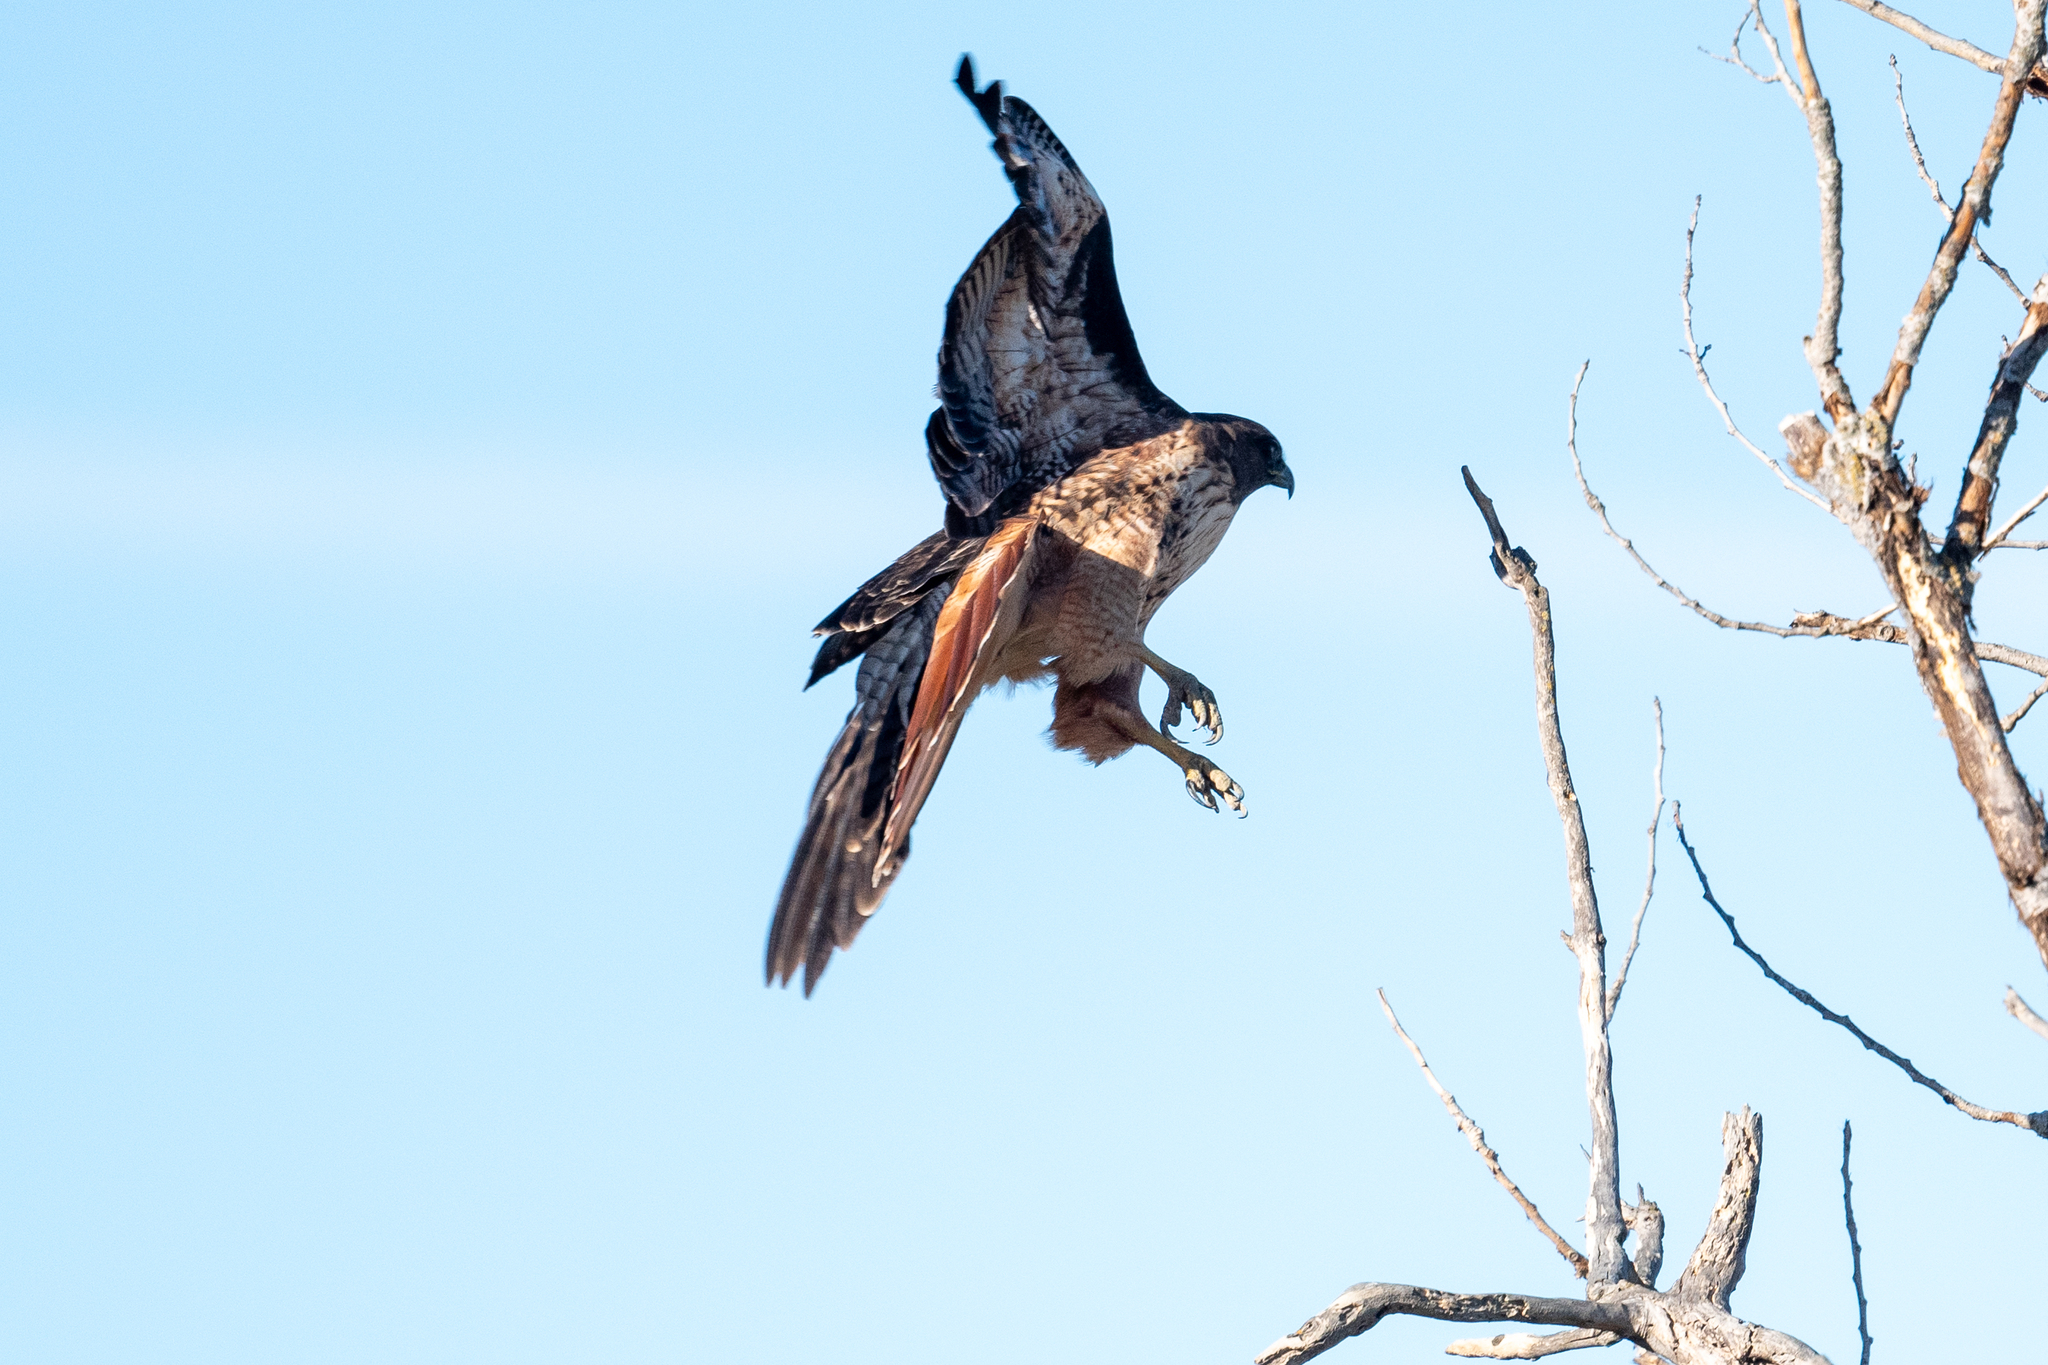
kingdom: Animalia
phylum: Chordata
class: Aves
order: Accipitriformes
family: Accipitridae
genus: Buteo
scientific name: Buteo jamaicensis
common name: Red-tailed hawk
